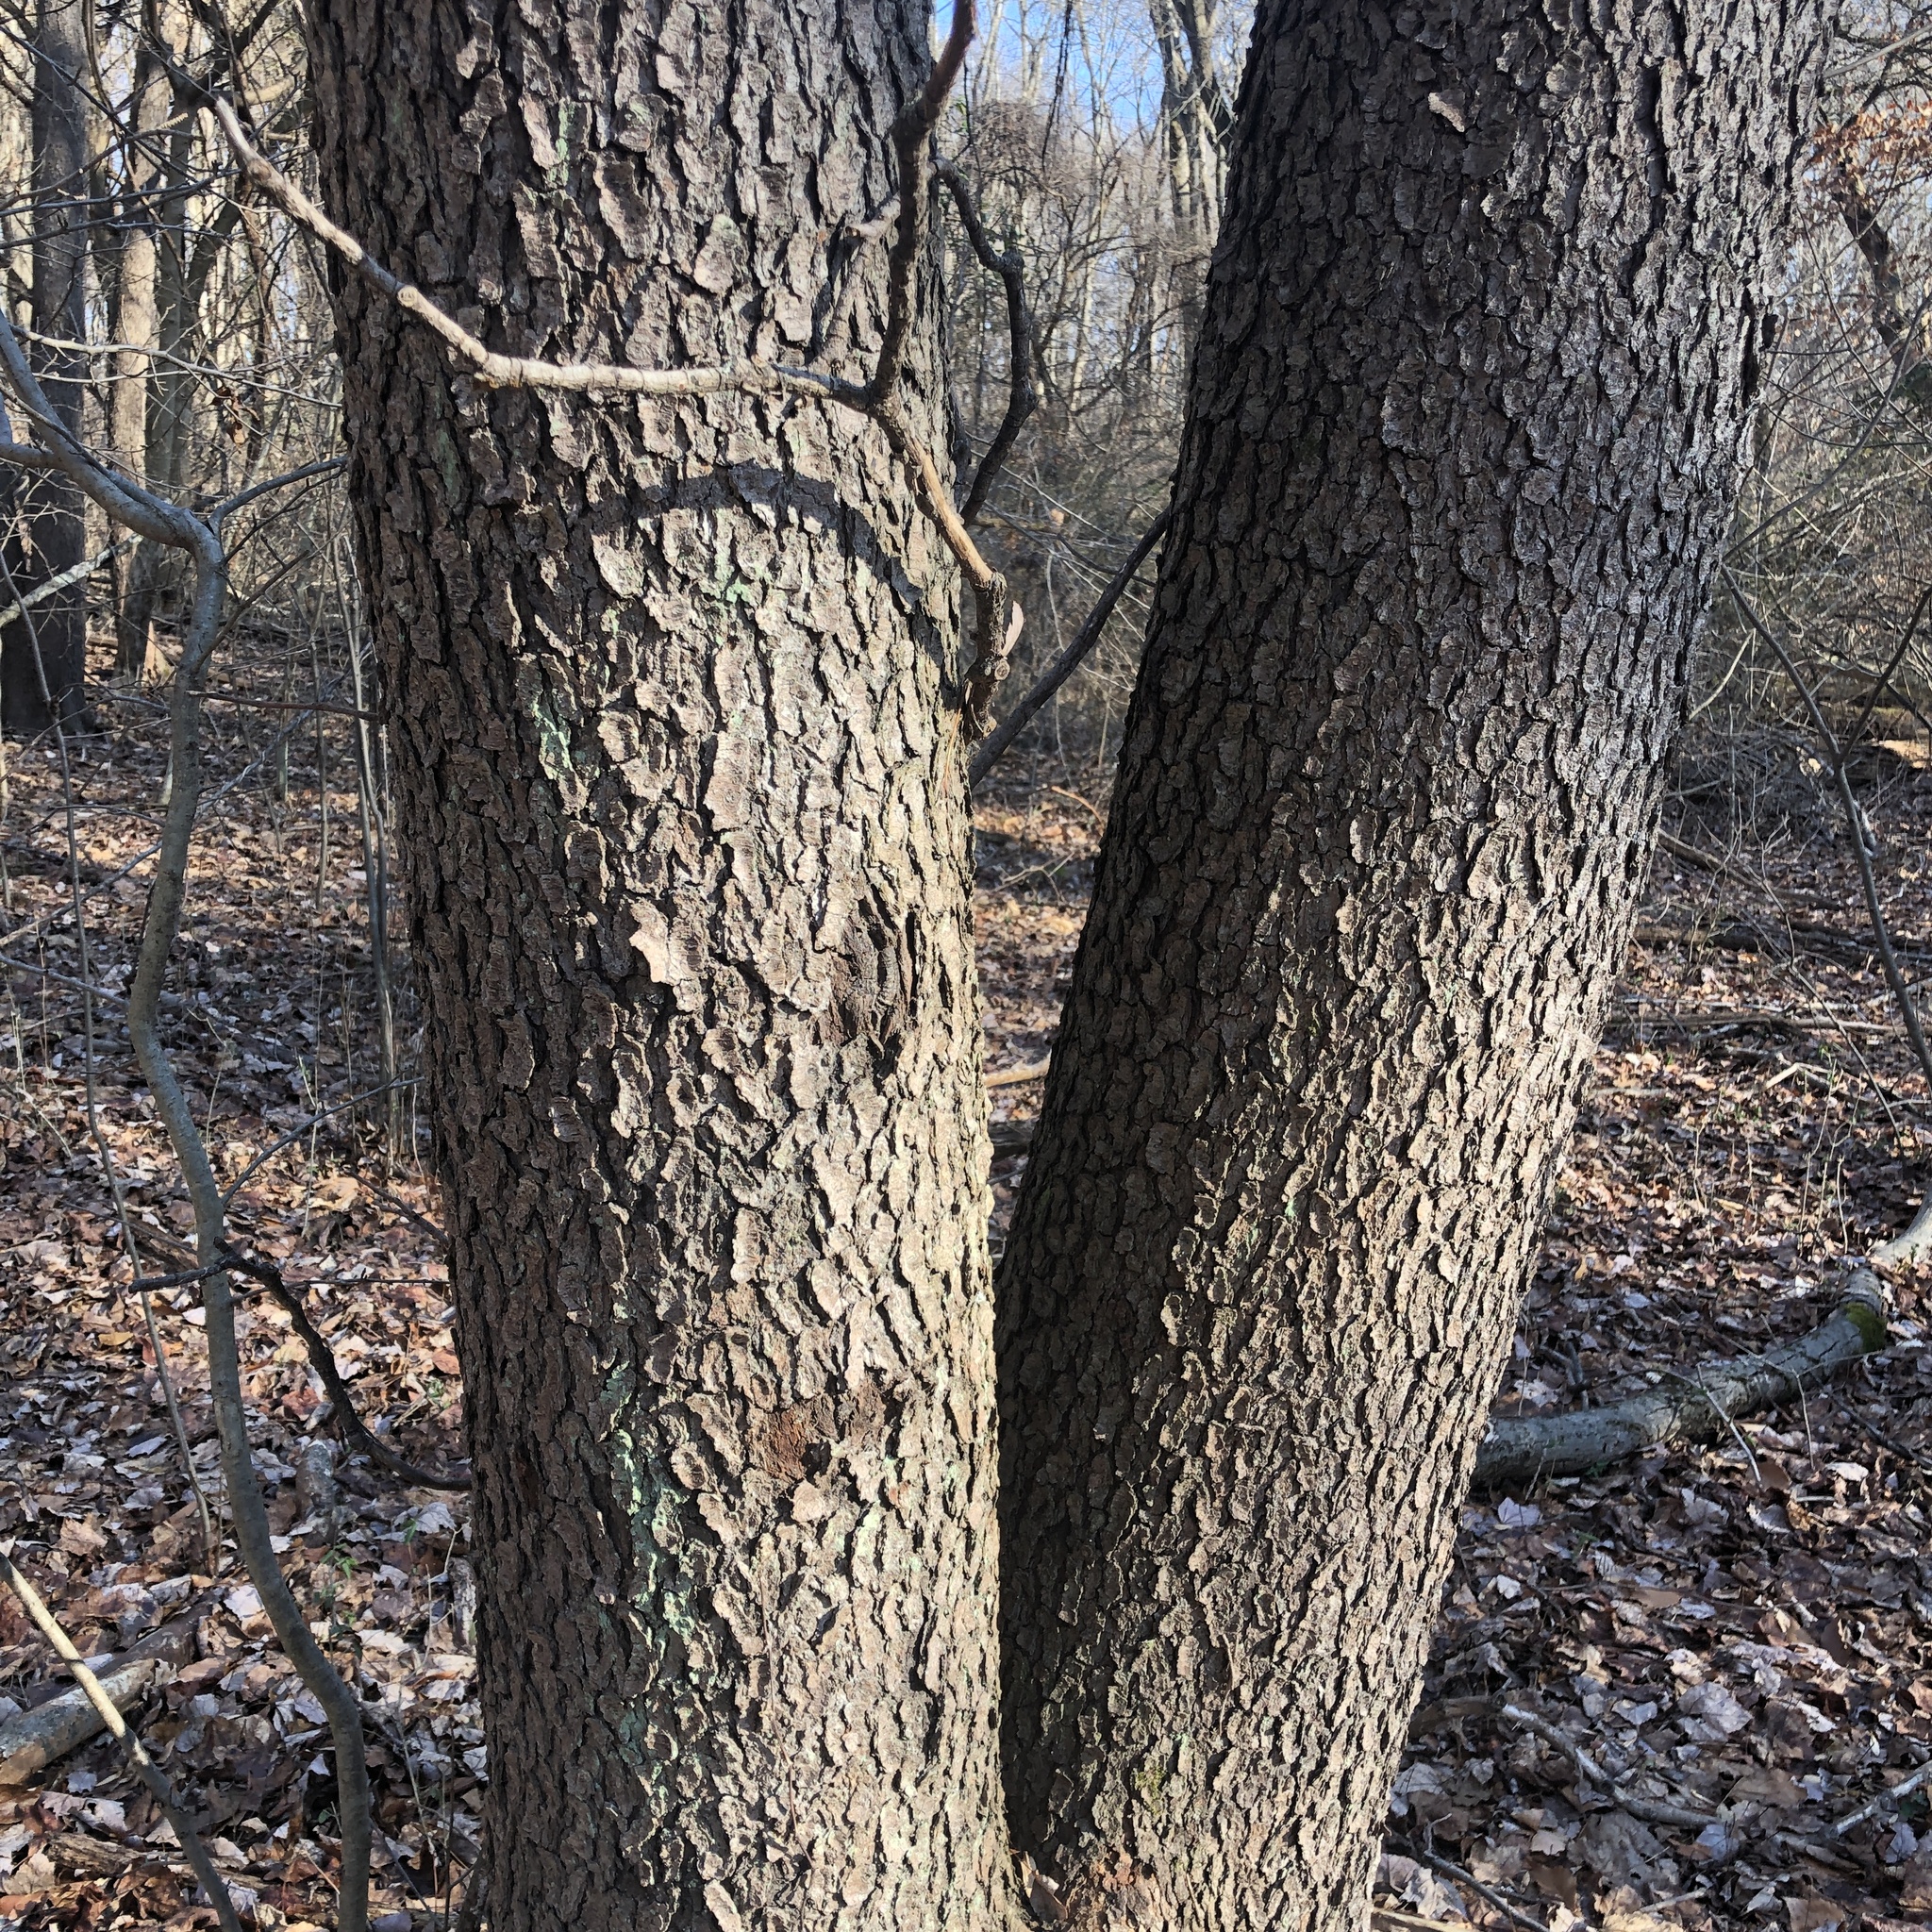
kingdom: Plantae
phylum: Tracheophyta
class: Magnoliopsida
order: Rosales
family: Rosaceae
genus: Prunus
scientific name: Prunus serotina
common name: Black cherry
